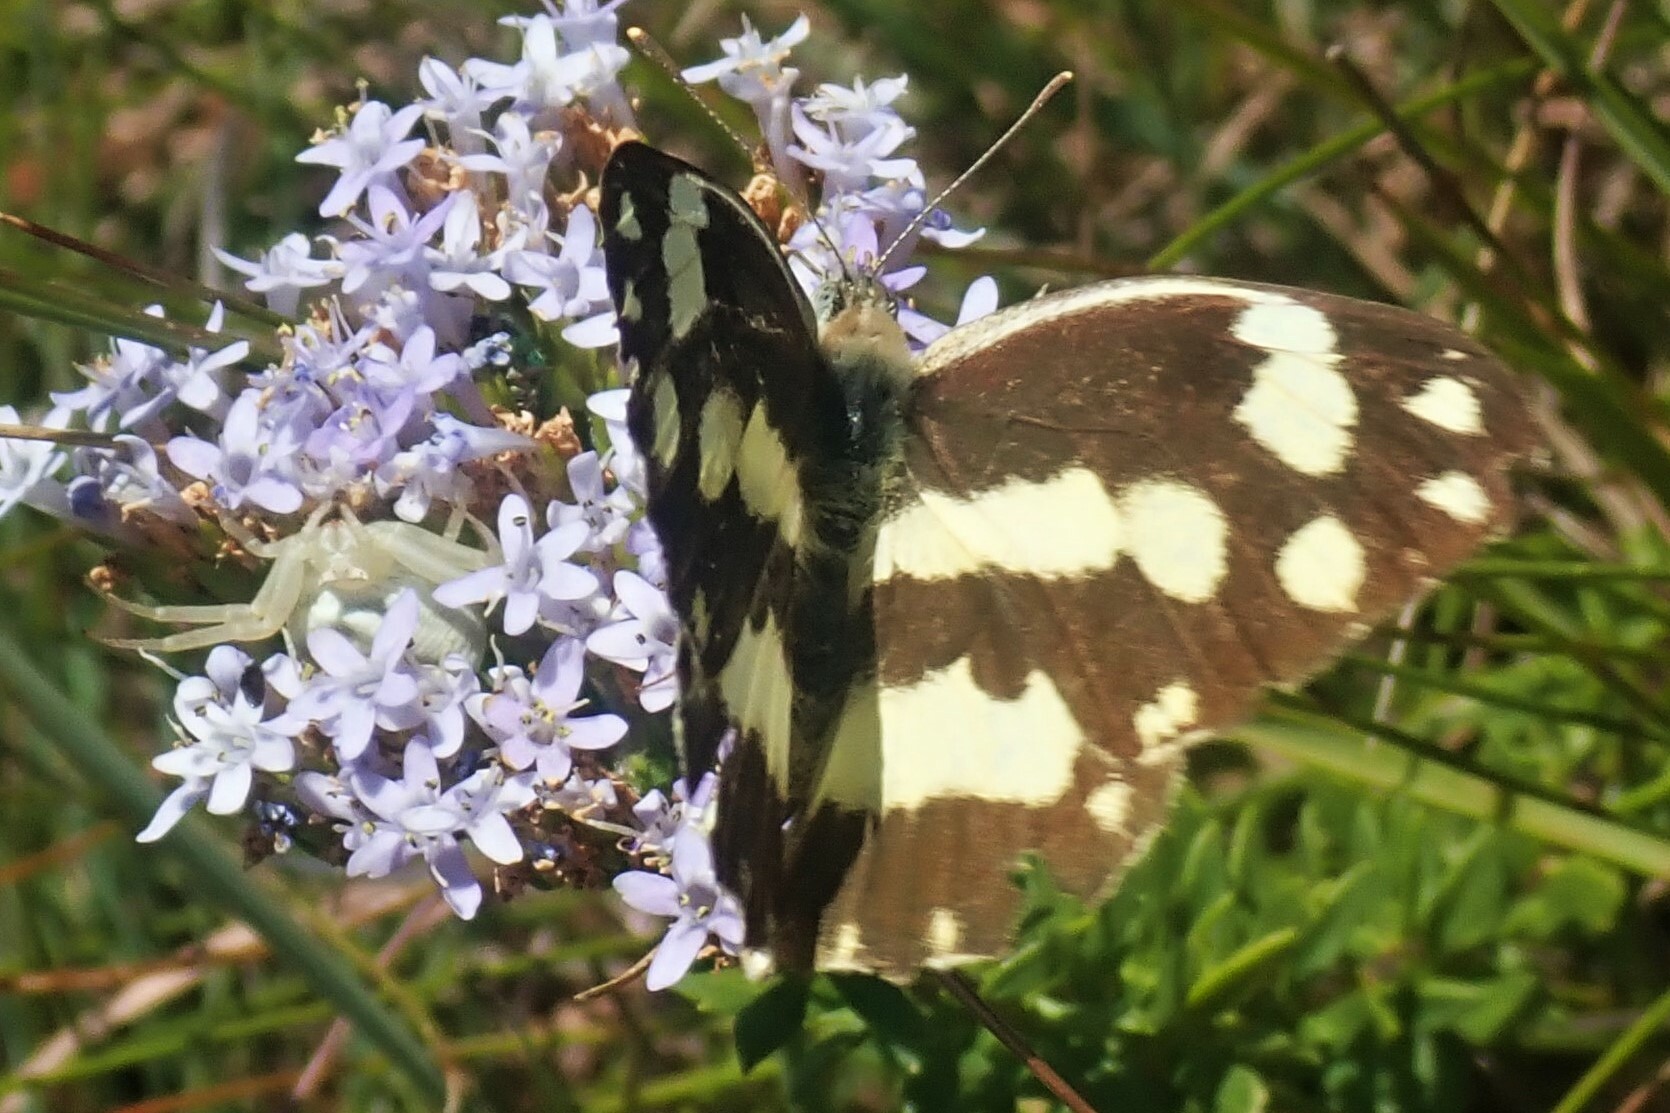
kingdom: Animalia
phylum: Arthropoda
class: Insecta
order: Lepidoptera
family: Pieridae
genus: Pinacopteryx
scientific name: Pinacopteryx eriphia
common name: Zebra white
